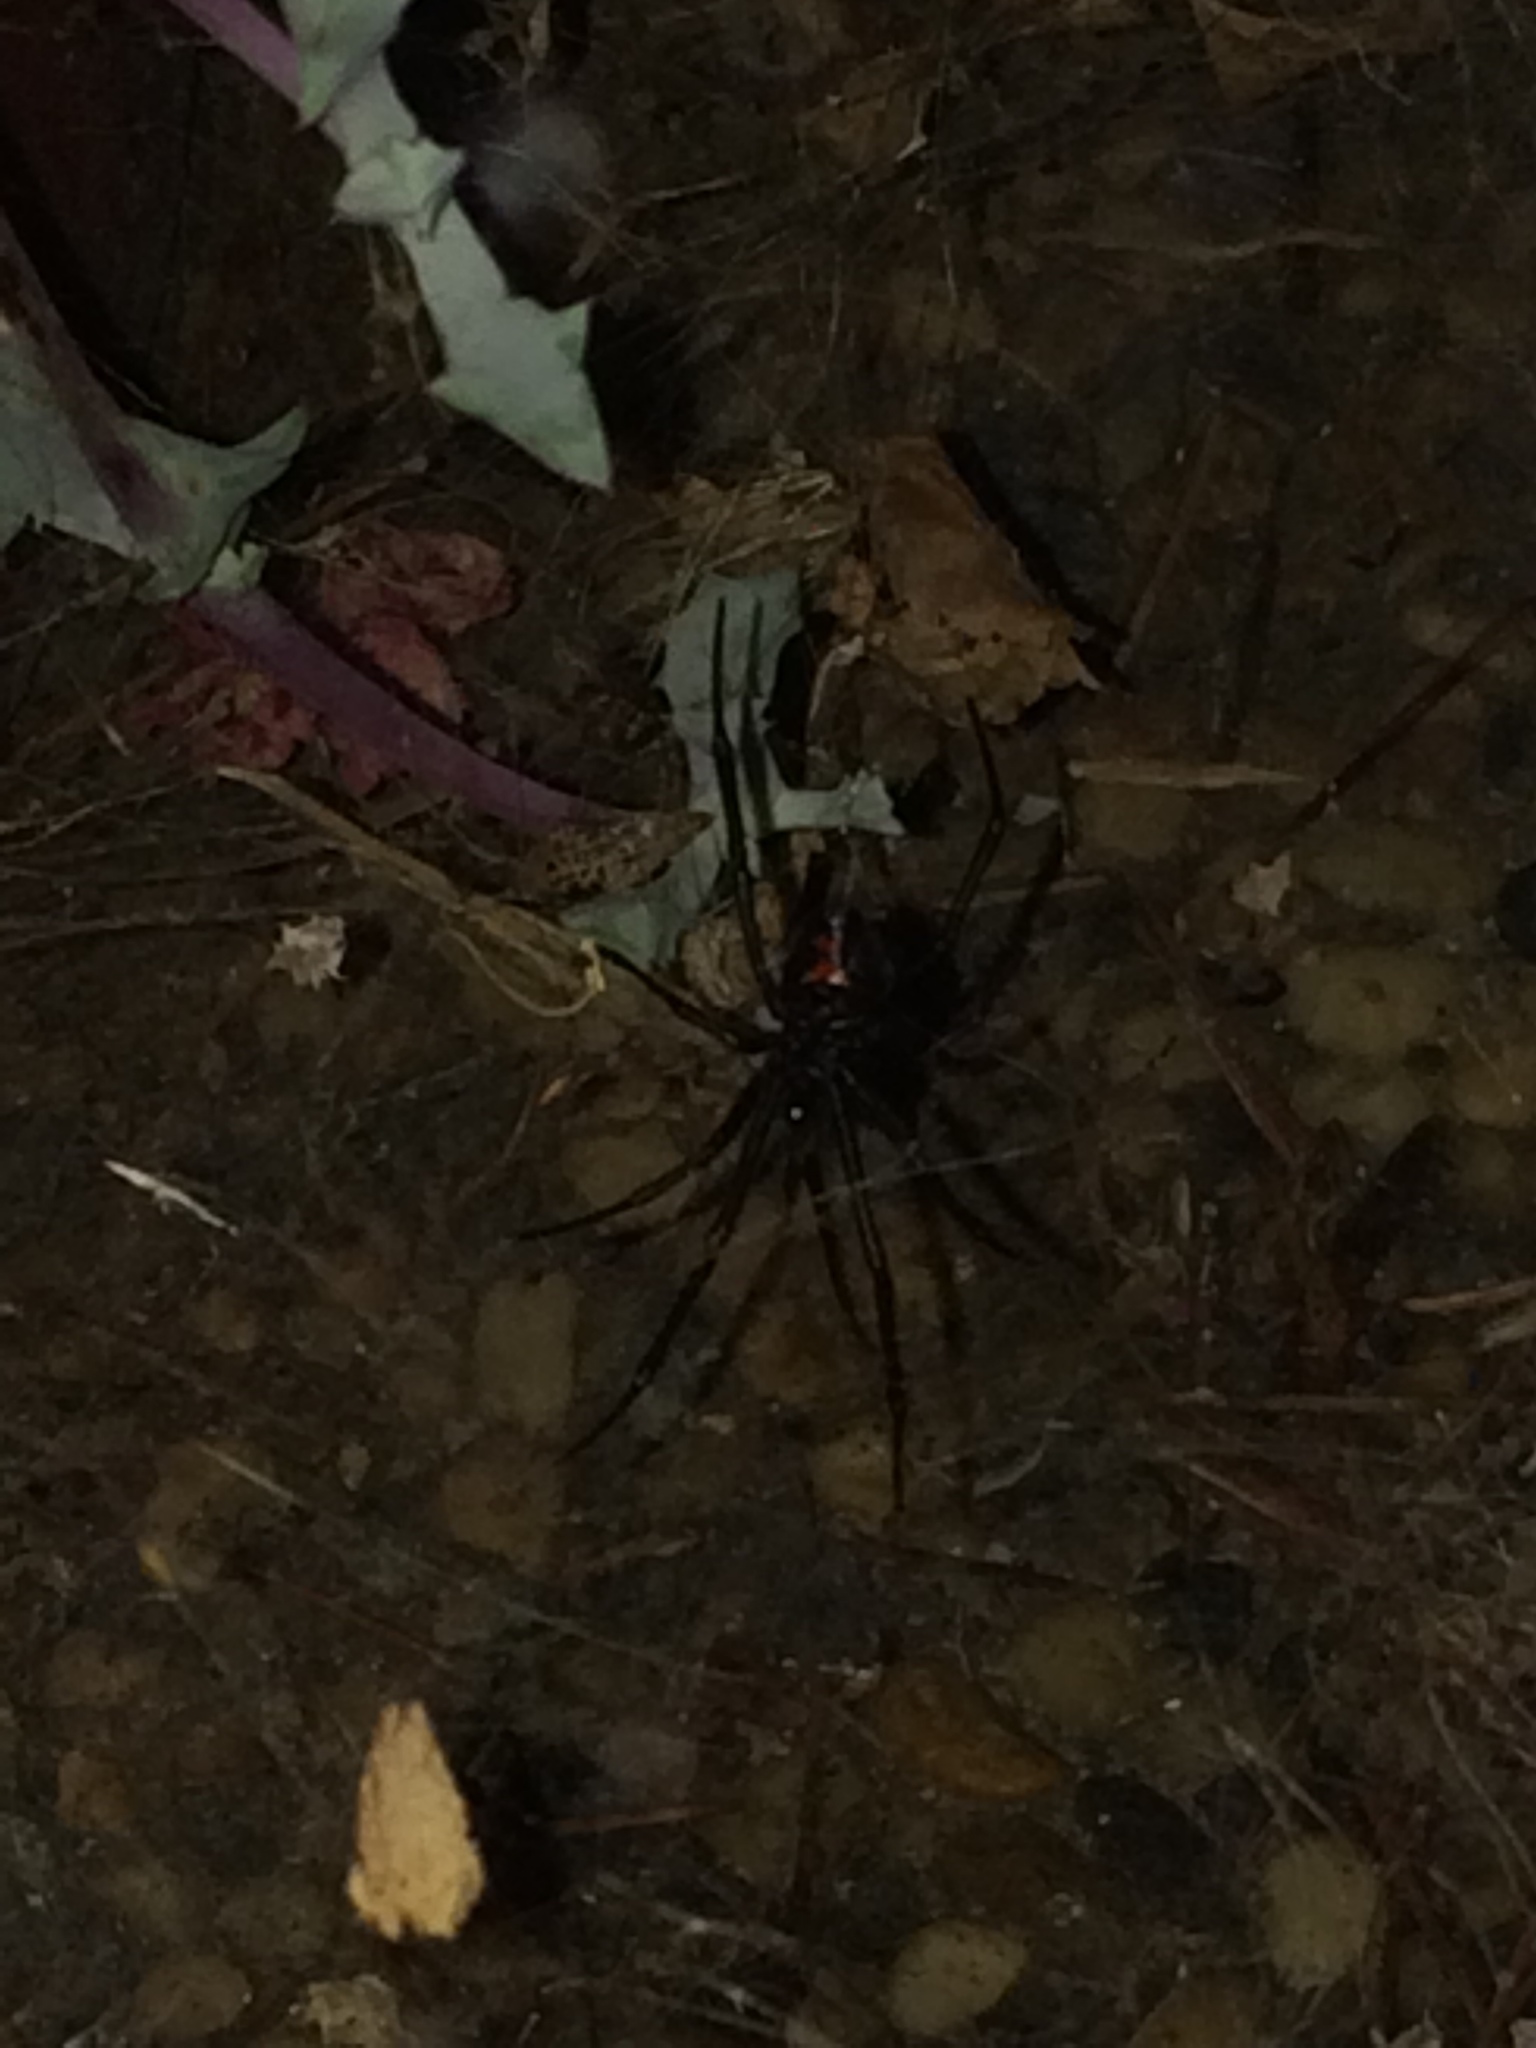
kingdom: Animalia
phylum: Arthropoda
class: Arachnida
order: Araneae
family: Theridiidae
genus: Latrodectus
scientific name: Latrodectus hesperus
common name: Western black widow
